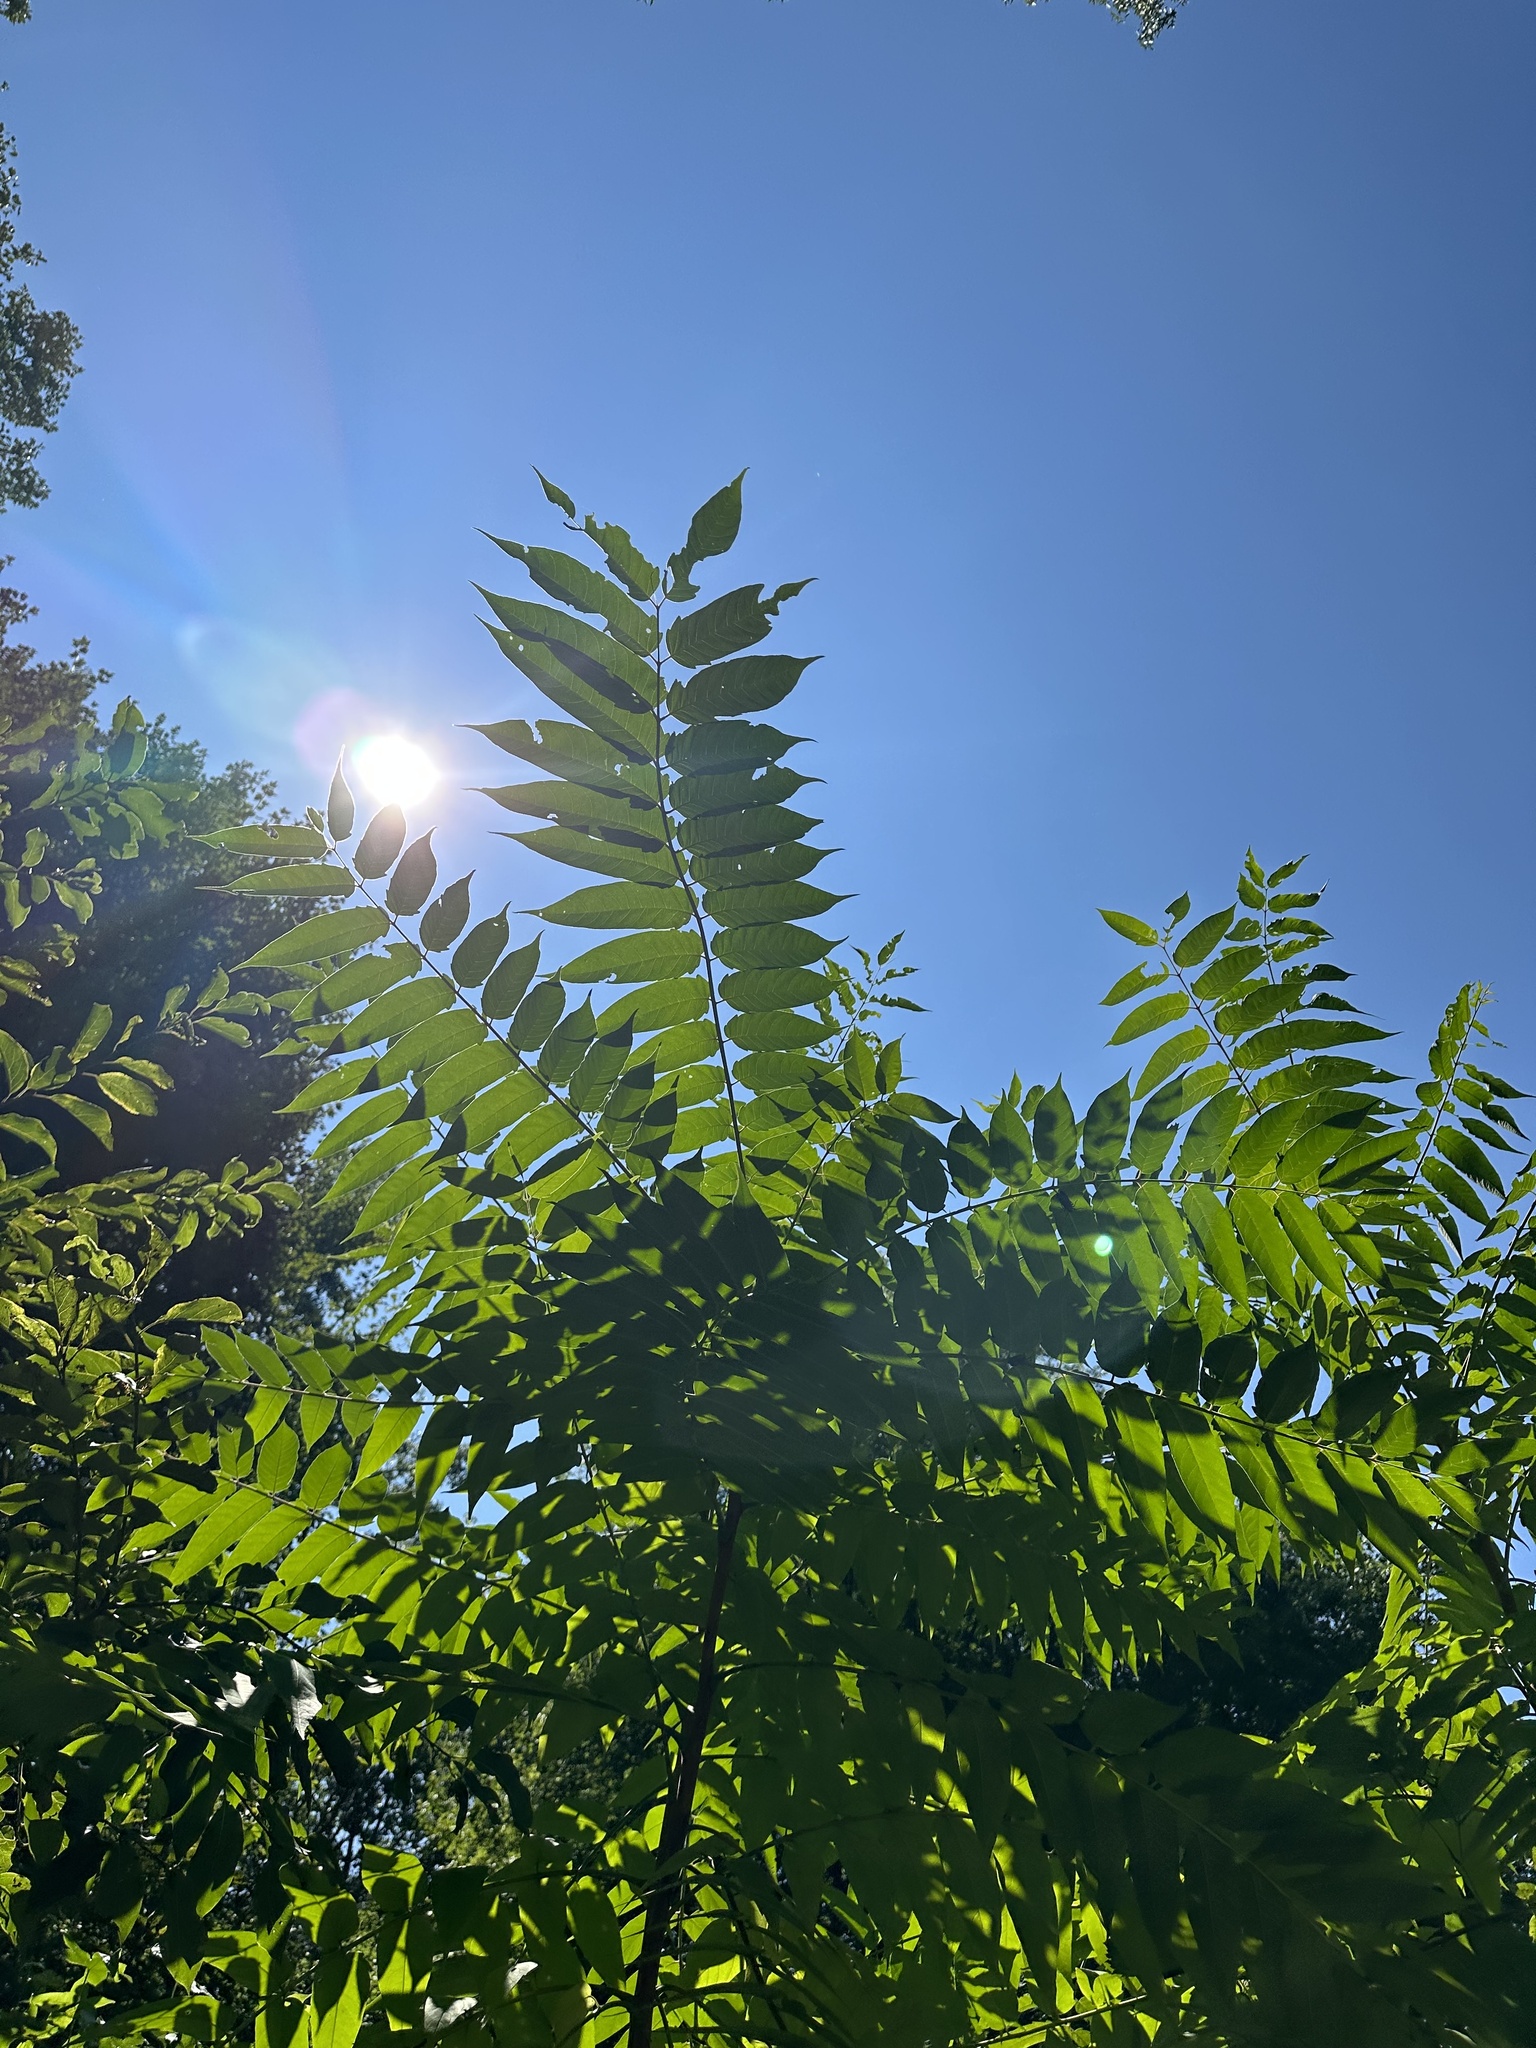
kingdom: Plantae
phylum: Tracheophyta
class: Magnoliopsida
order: Sapindales
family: Simaroubaceae
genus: Ailanthus
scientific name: Ailanthus altissima
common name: Tree-of-heaven
